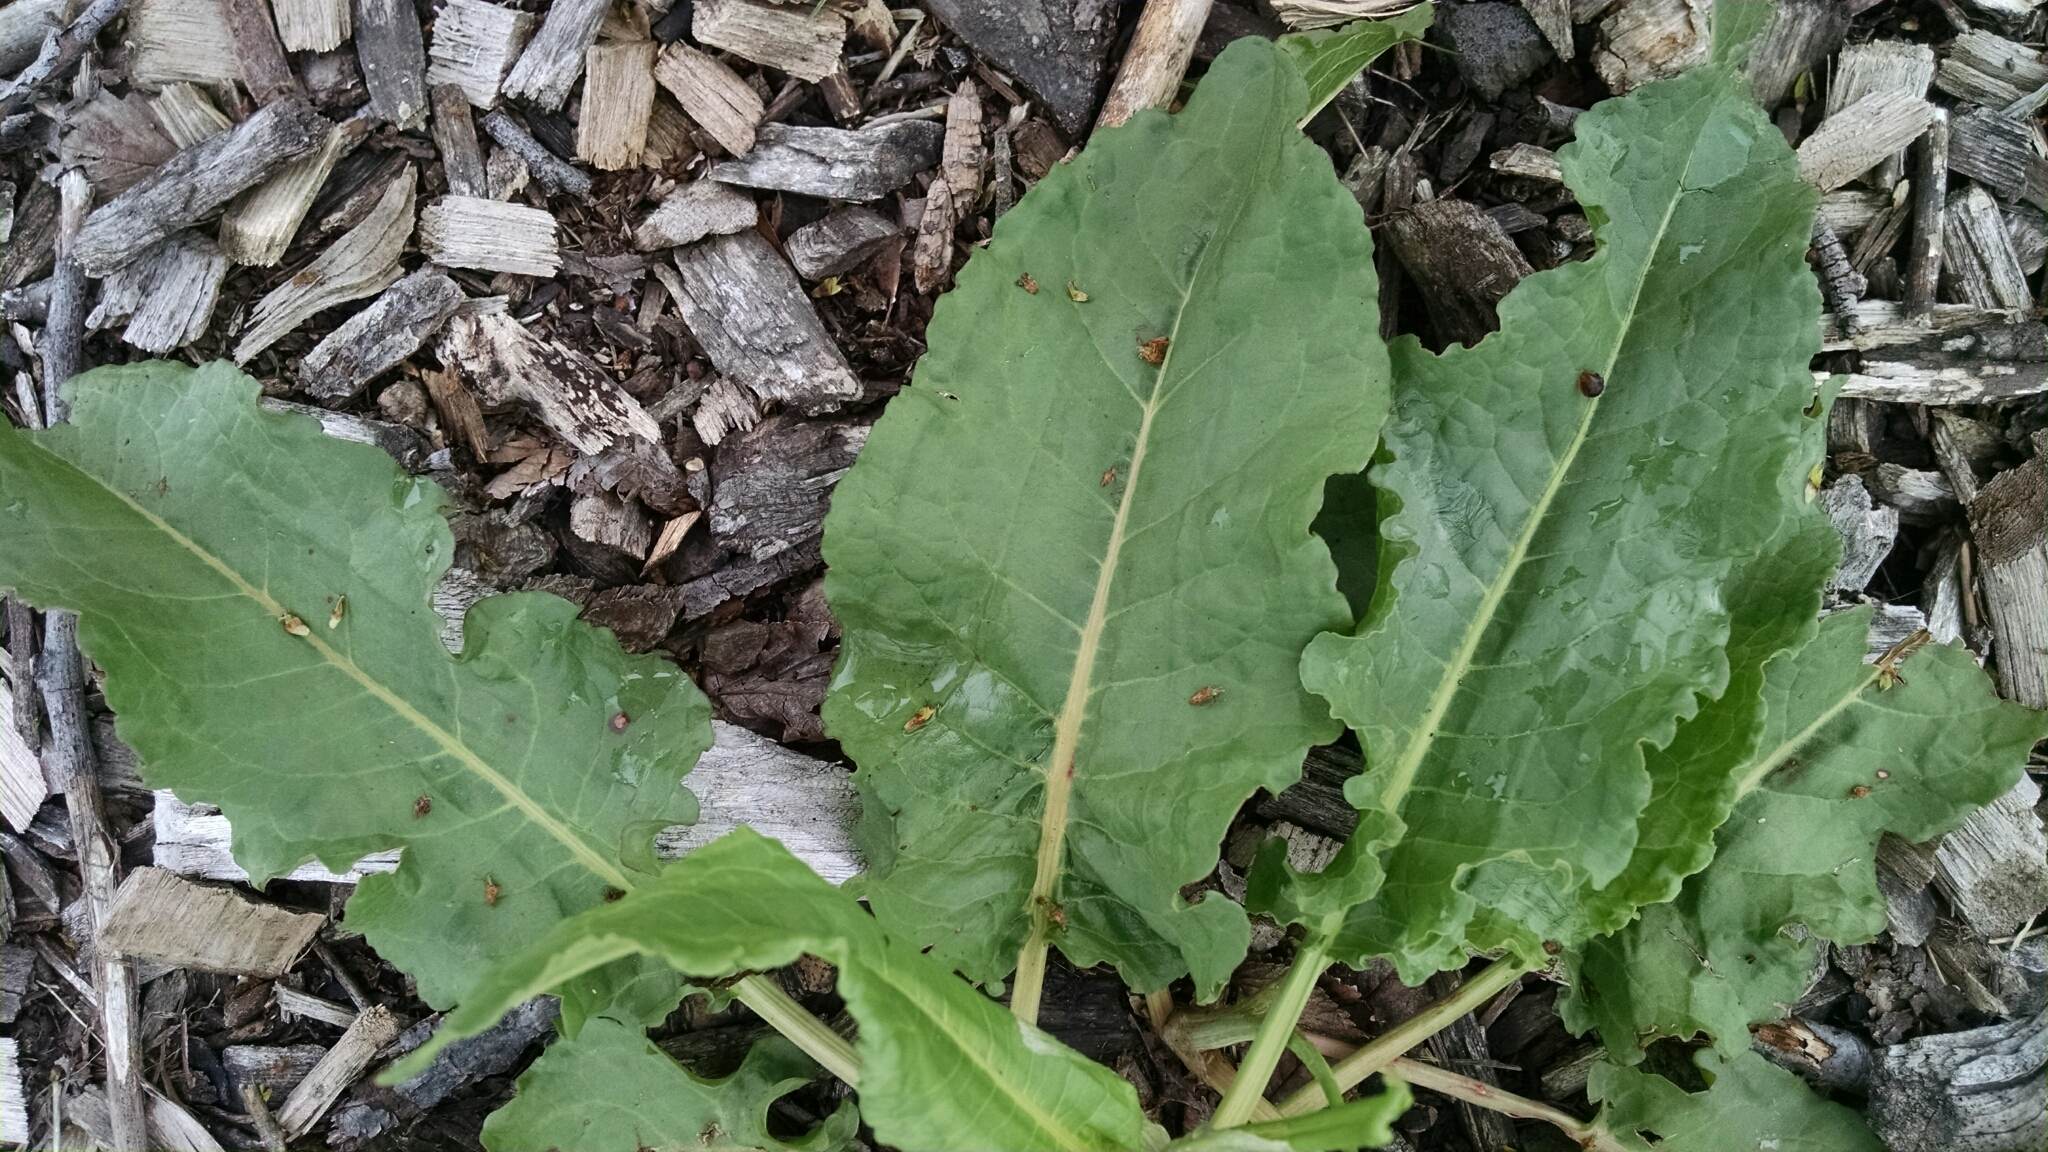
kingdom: Plantae
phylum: Tracheophyta
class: Magnoliopsida
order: Caryophyllales
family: Polygonaceae
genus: Rumex
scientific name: Rumex crispus
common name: Curled dock
